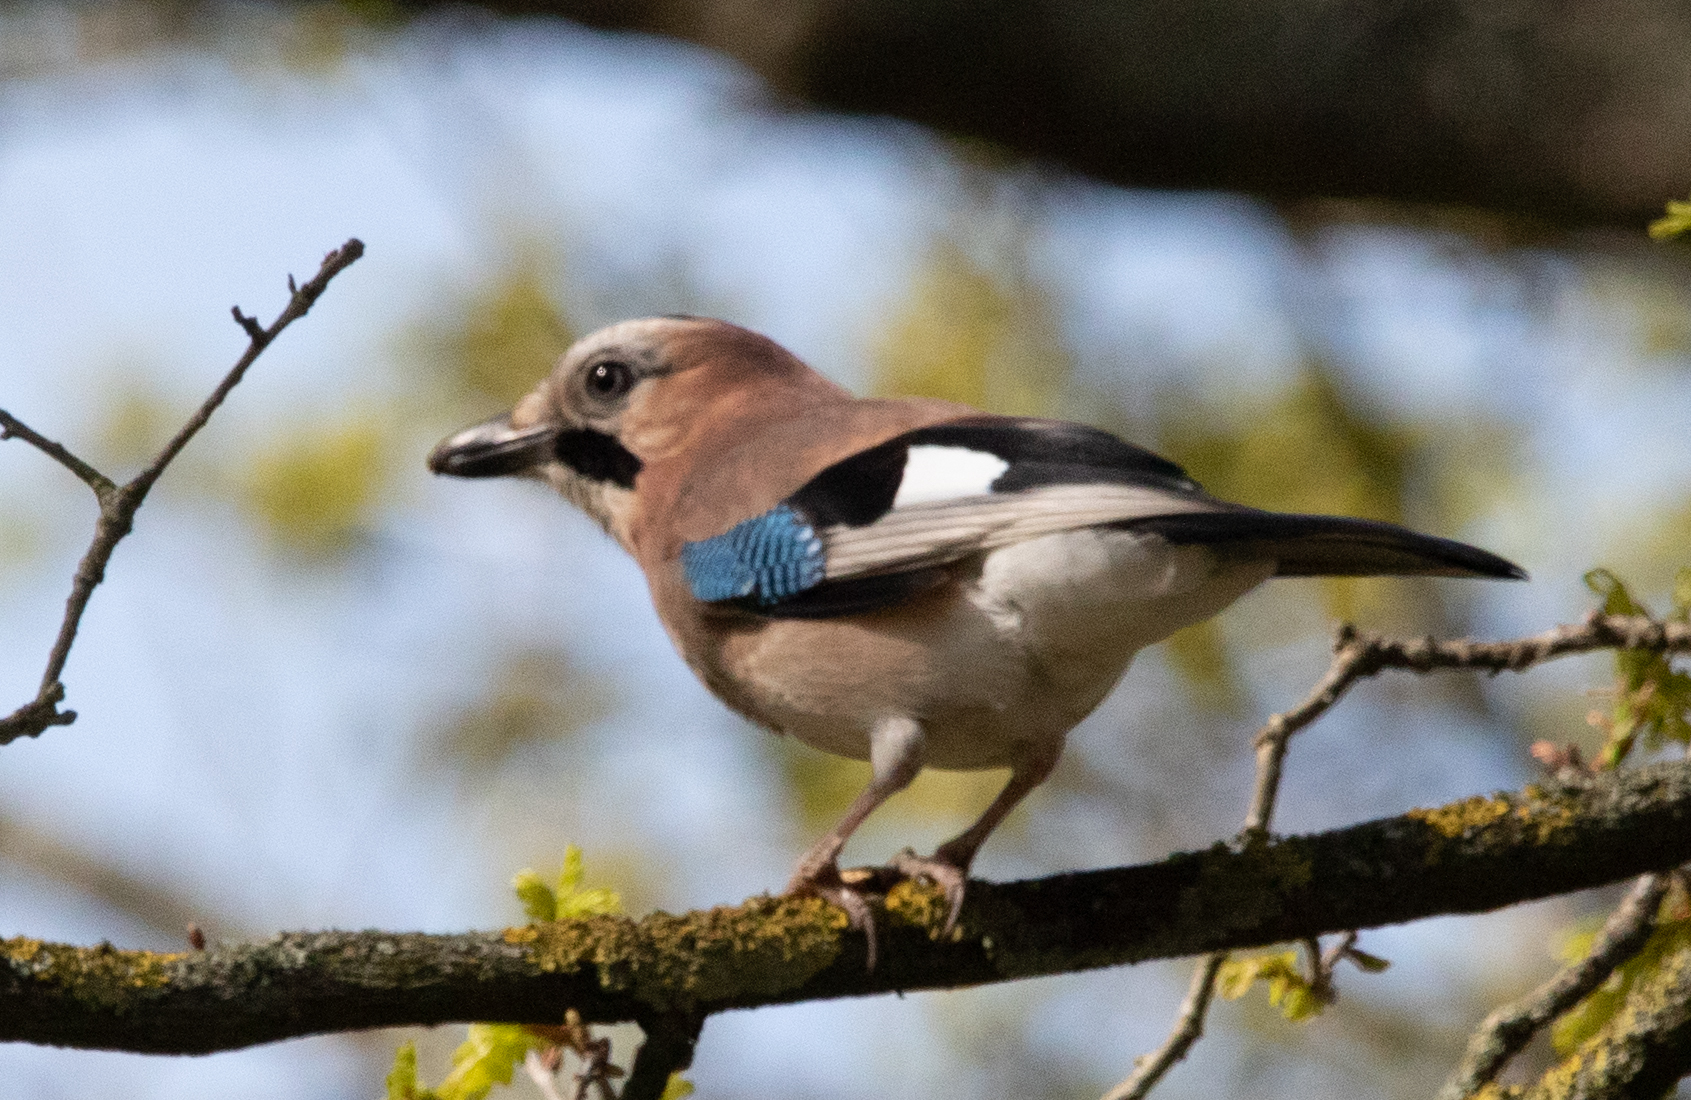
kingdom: Animalia
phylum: Chordata
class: Aves
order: Passeriformes
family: Corvidae
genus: Garrulus
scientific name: Garrulus glandarius
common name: Eurasian jay
